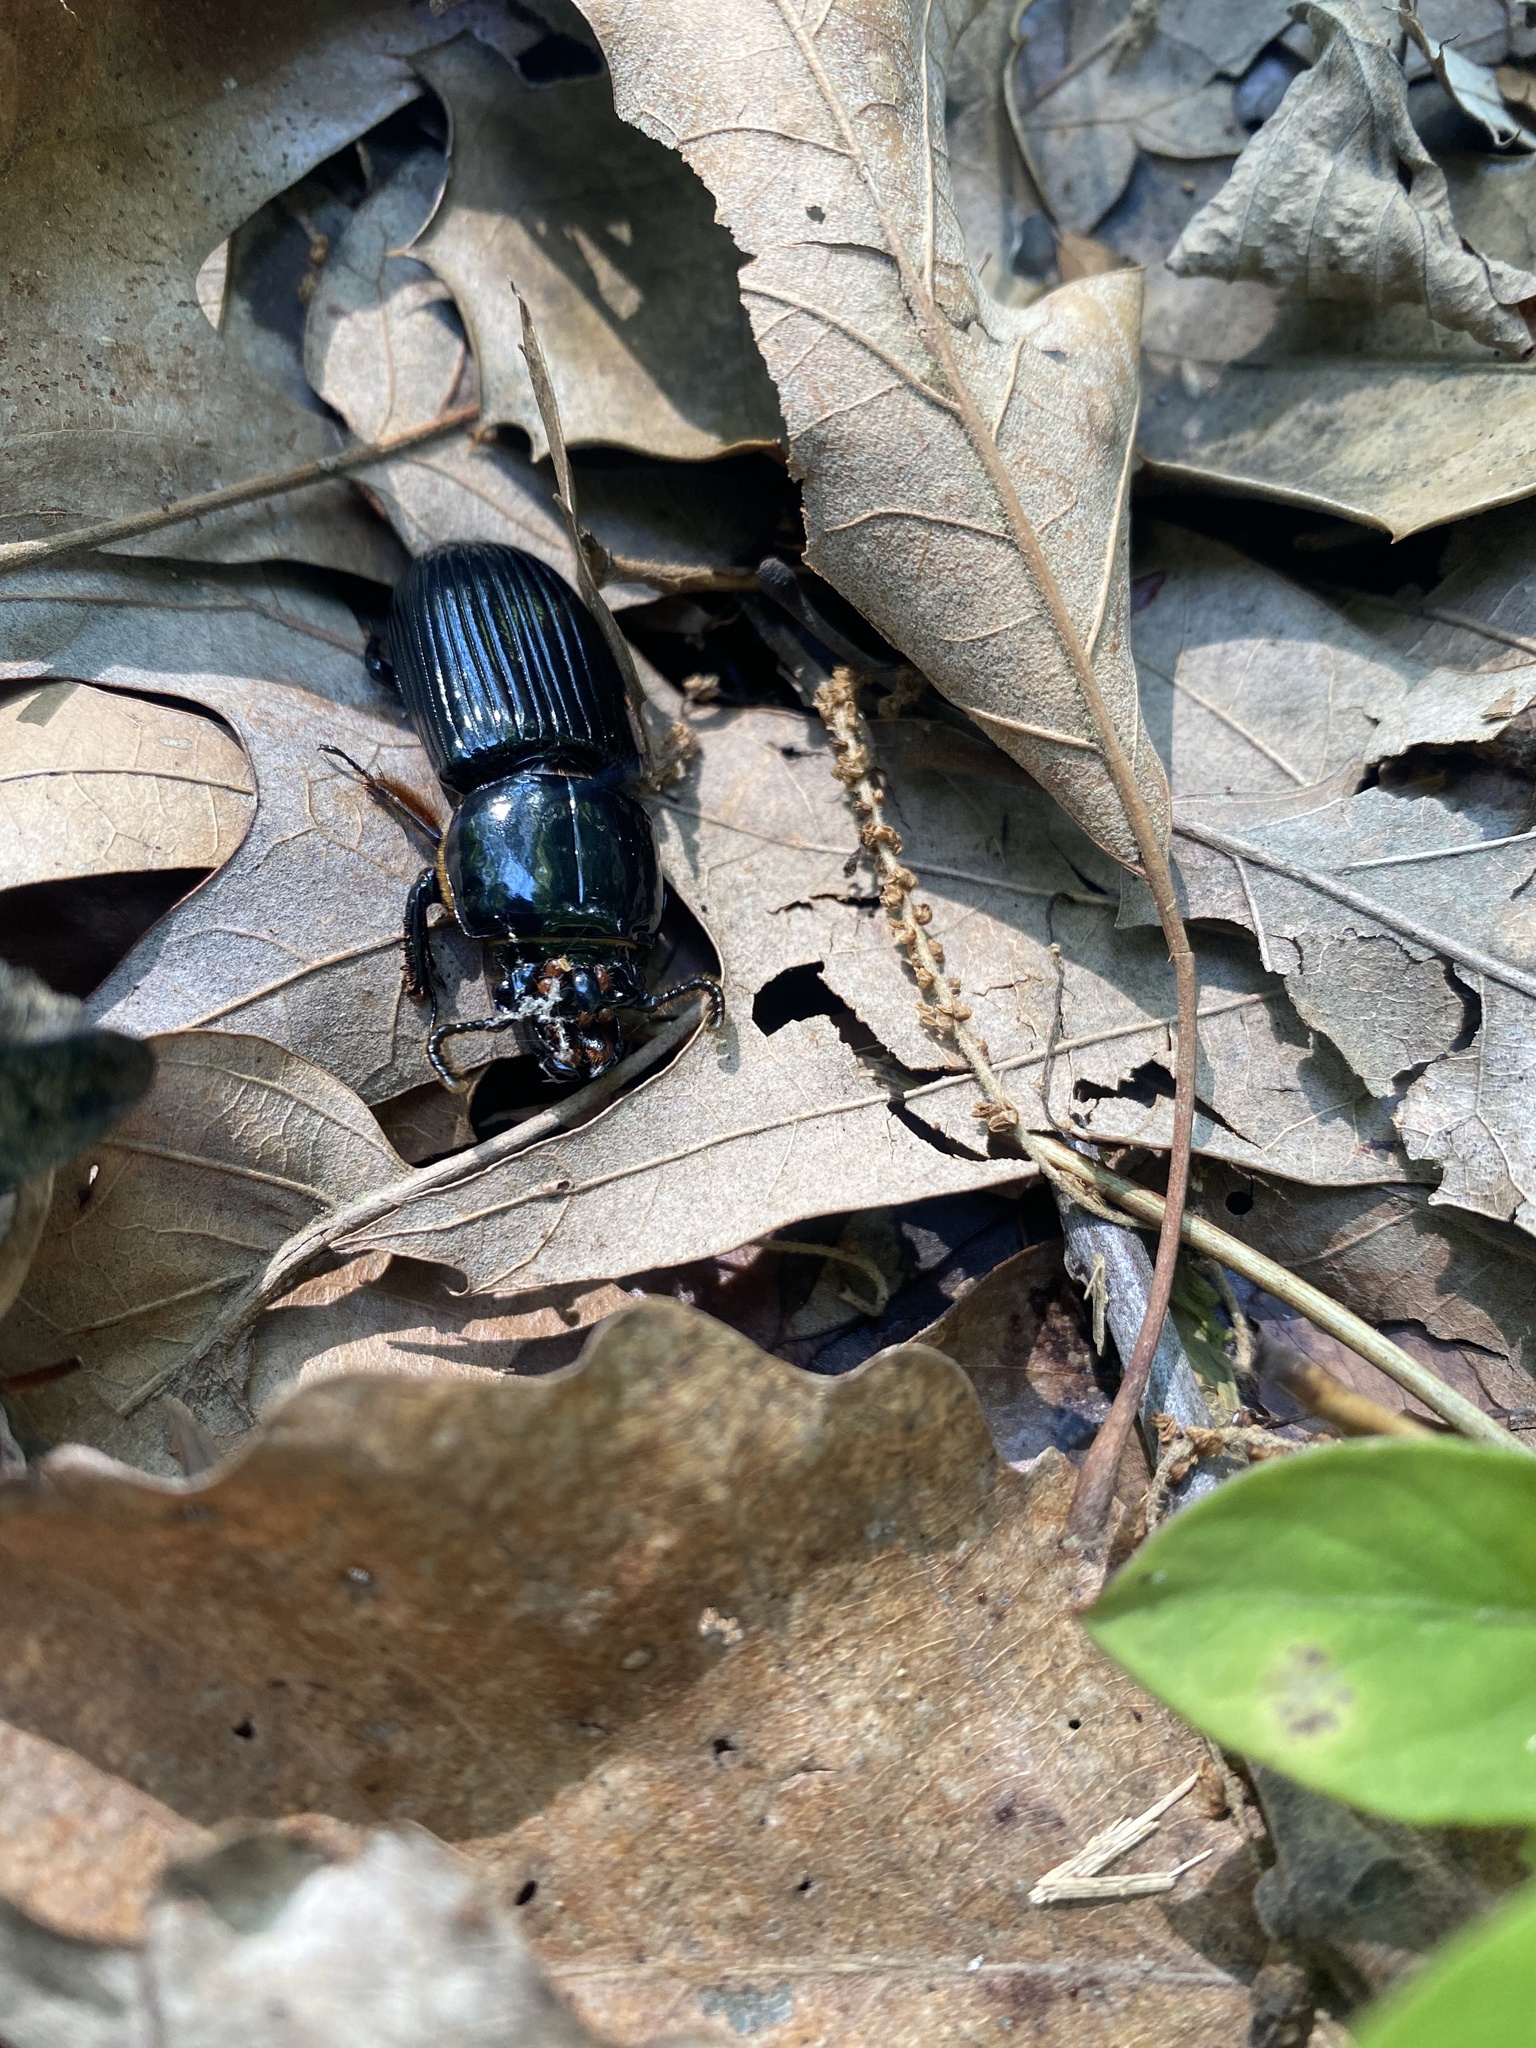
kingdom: Animalia
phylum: Arthropoda
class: Insecta
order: Coleoptera
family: Passalidae
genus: Odontotaenius
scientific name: Odontotaenius disjunctus
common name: Patent leather beetle
